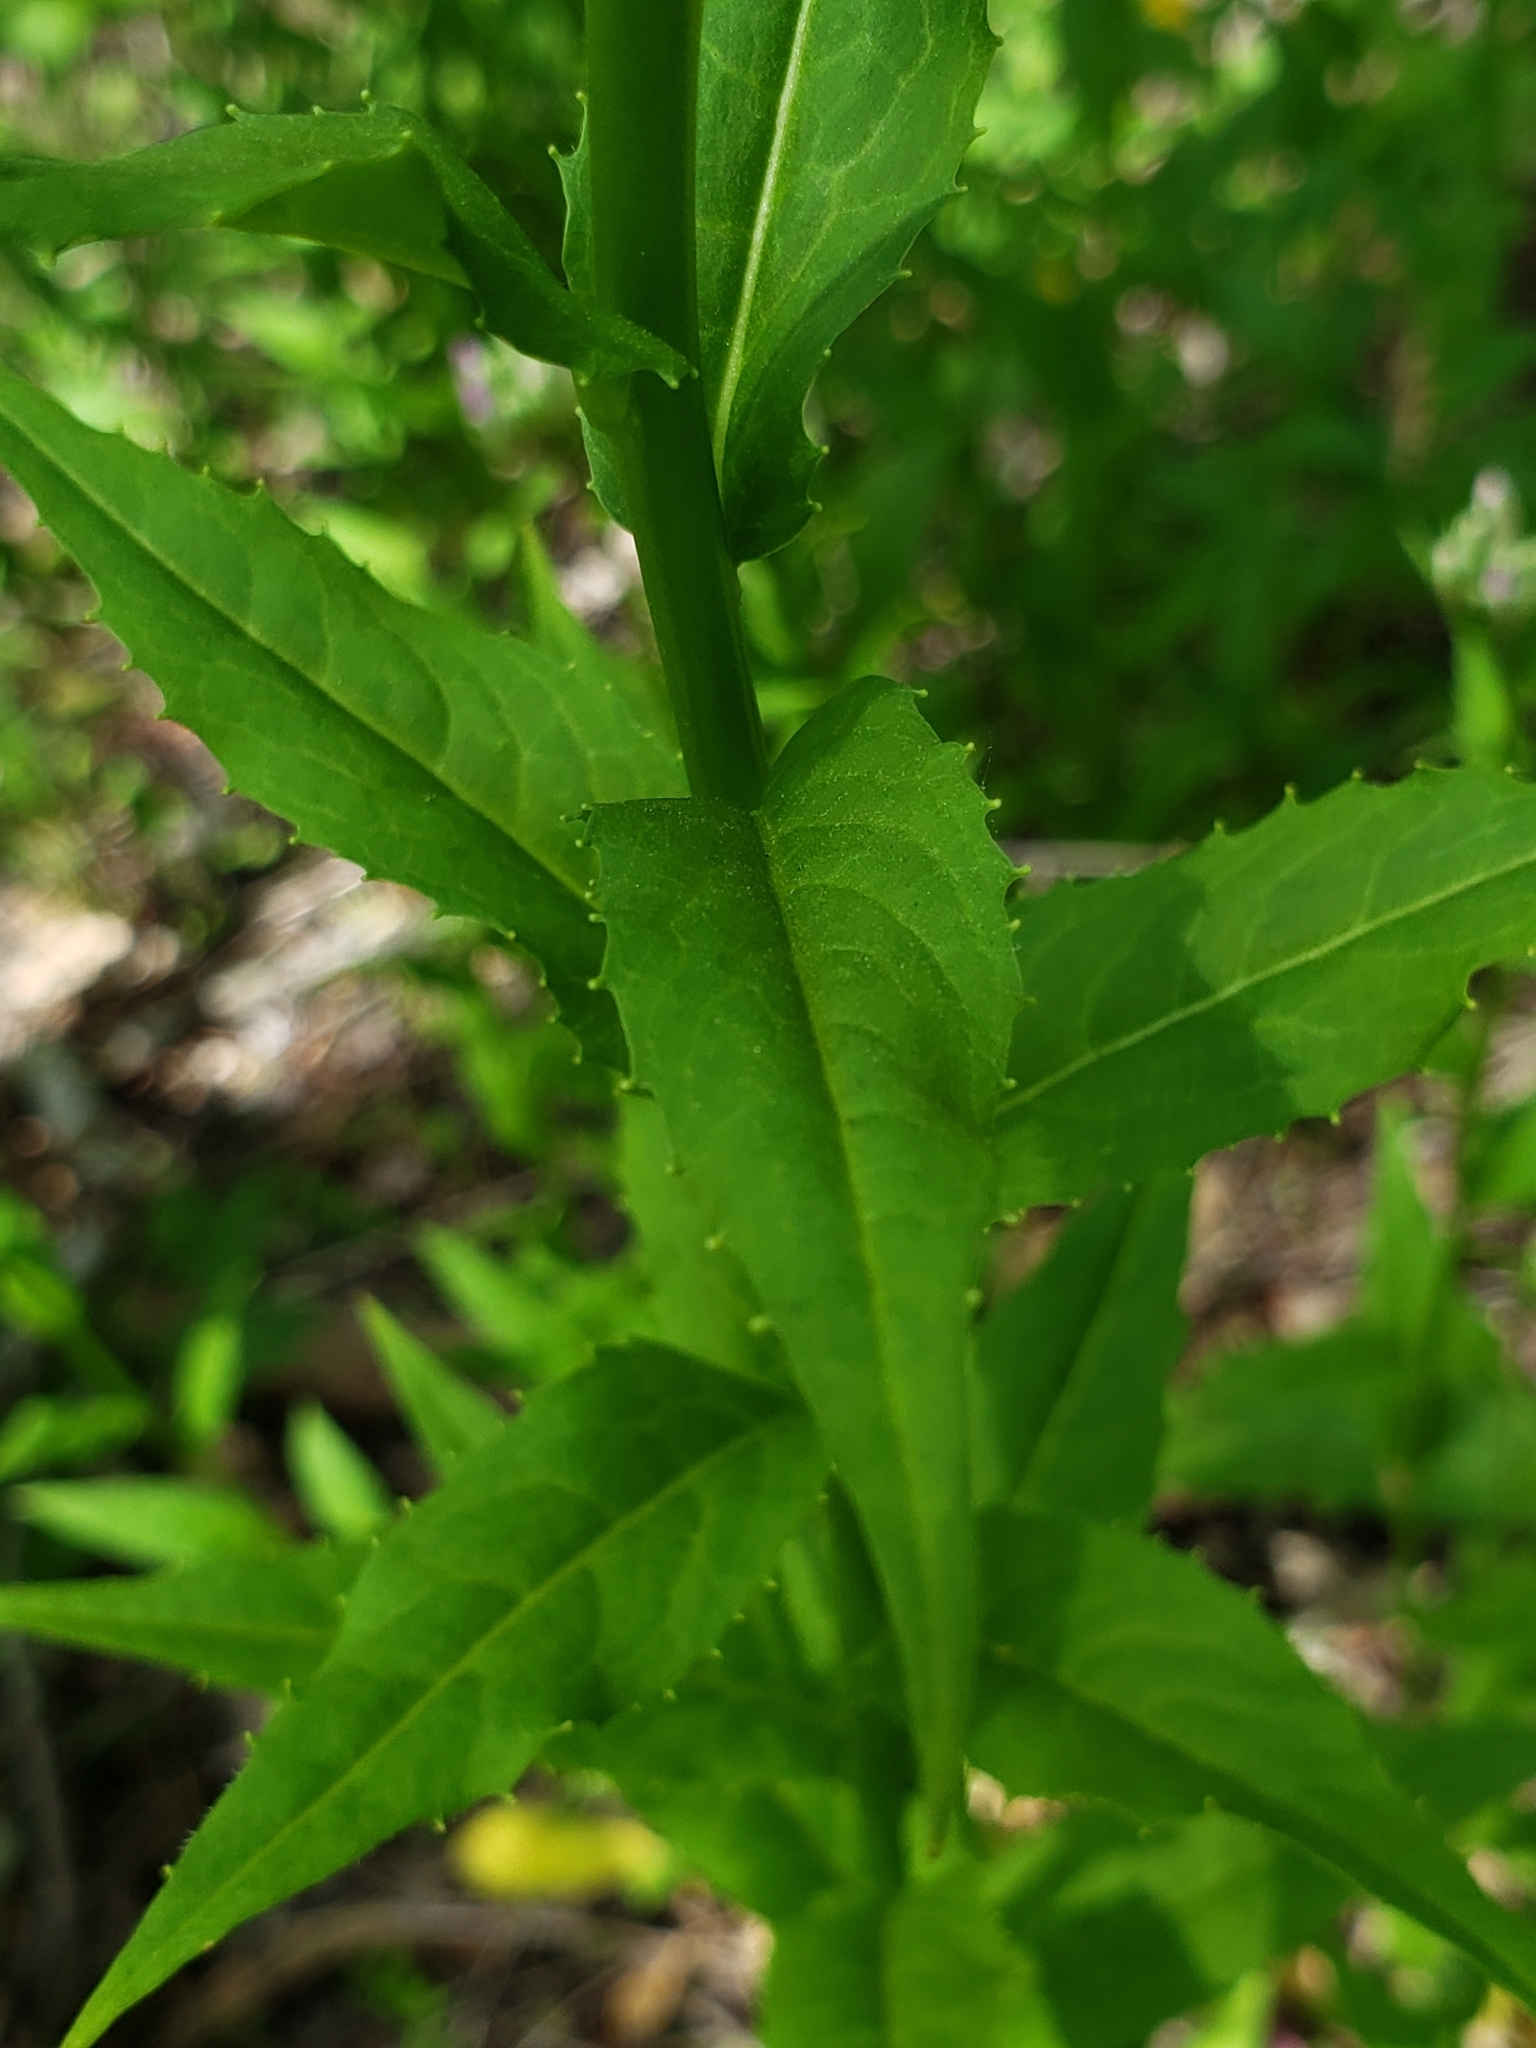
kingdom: Plantae
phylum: Tracheophyta
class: Magnoliopsida
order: Brassicales
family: Brassicaceae
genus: Hesperis
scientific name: Hesperis matronalis
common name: Dame's-violet
